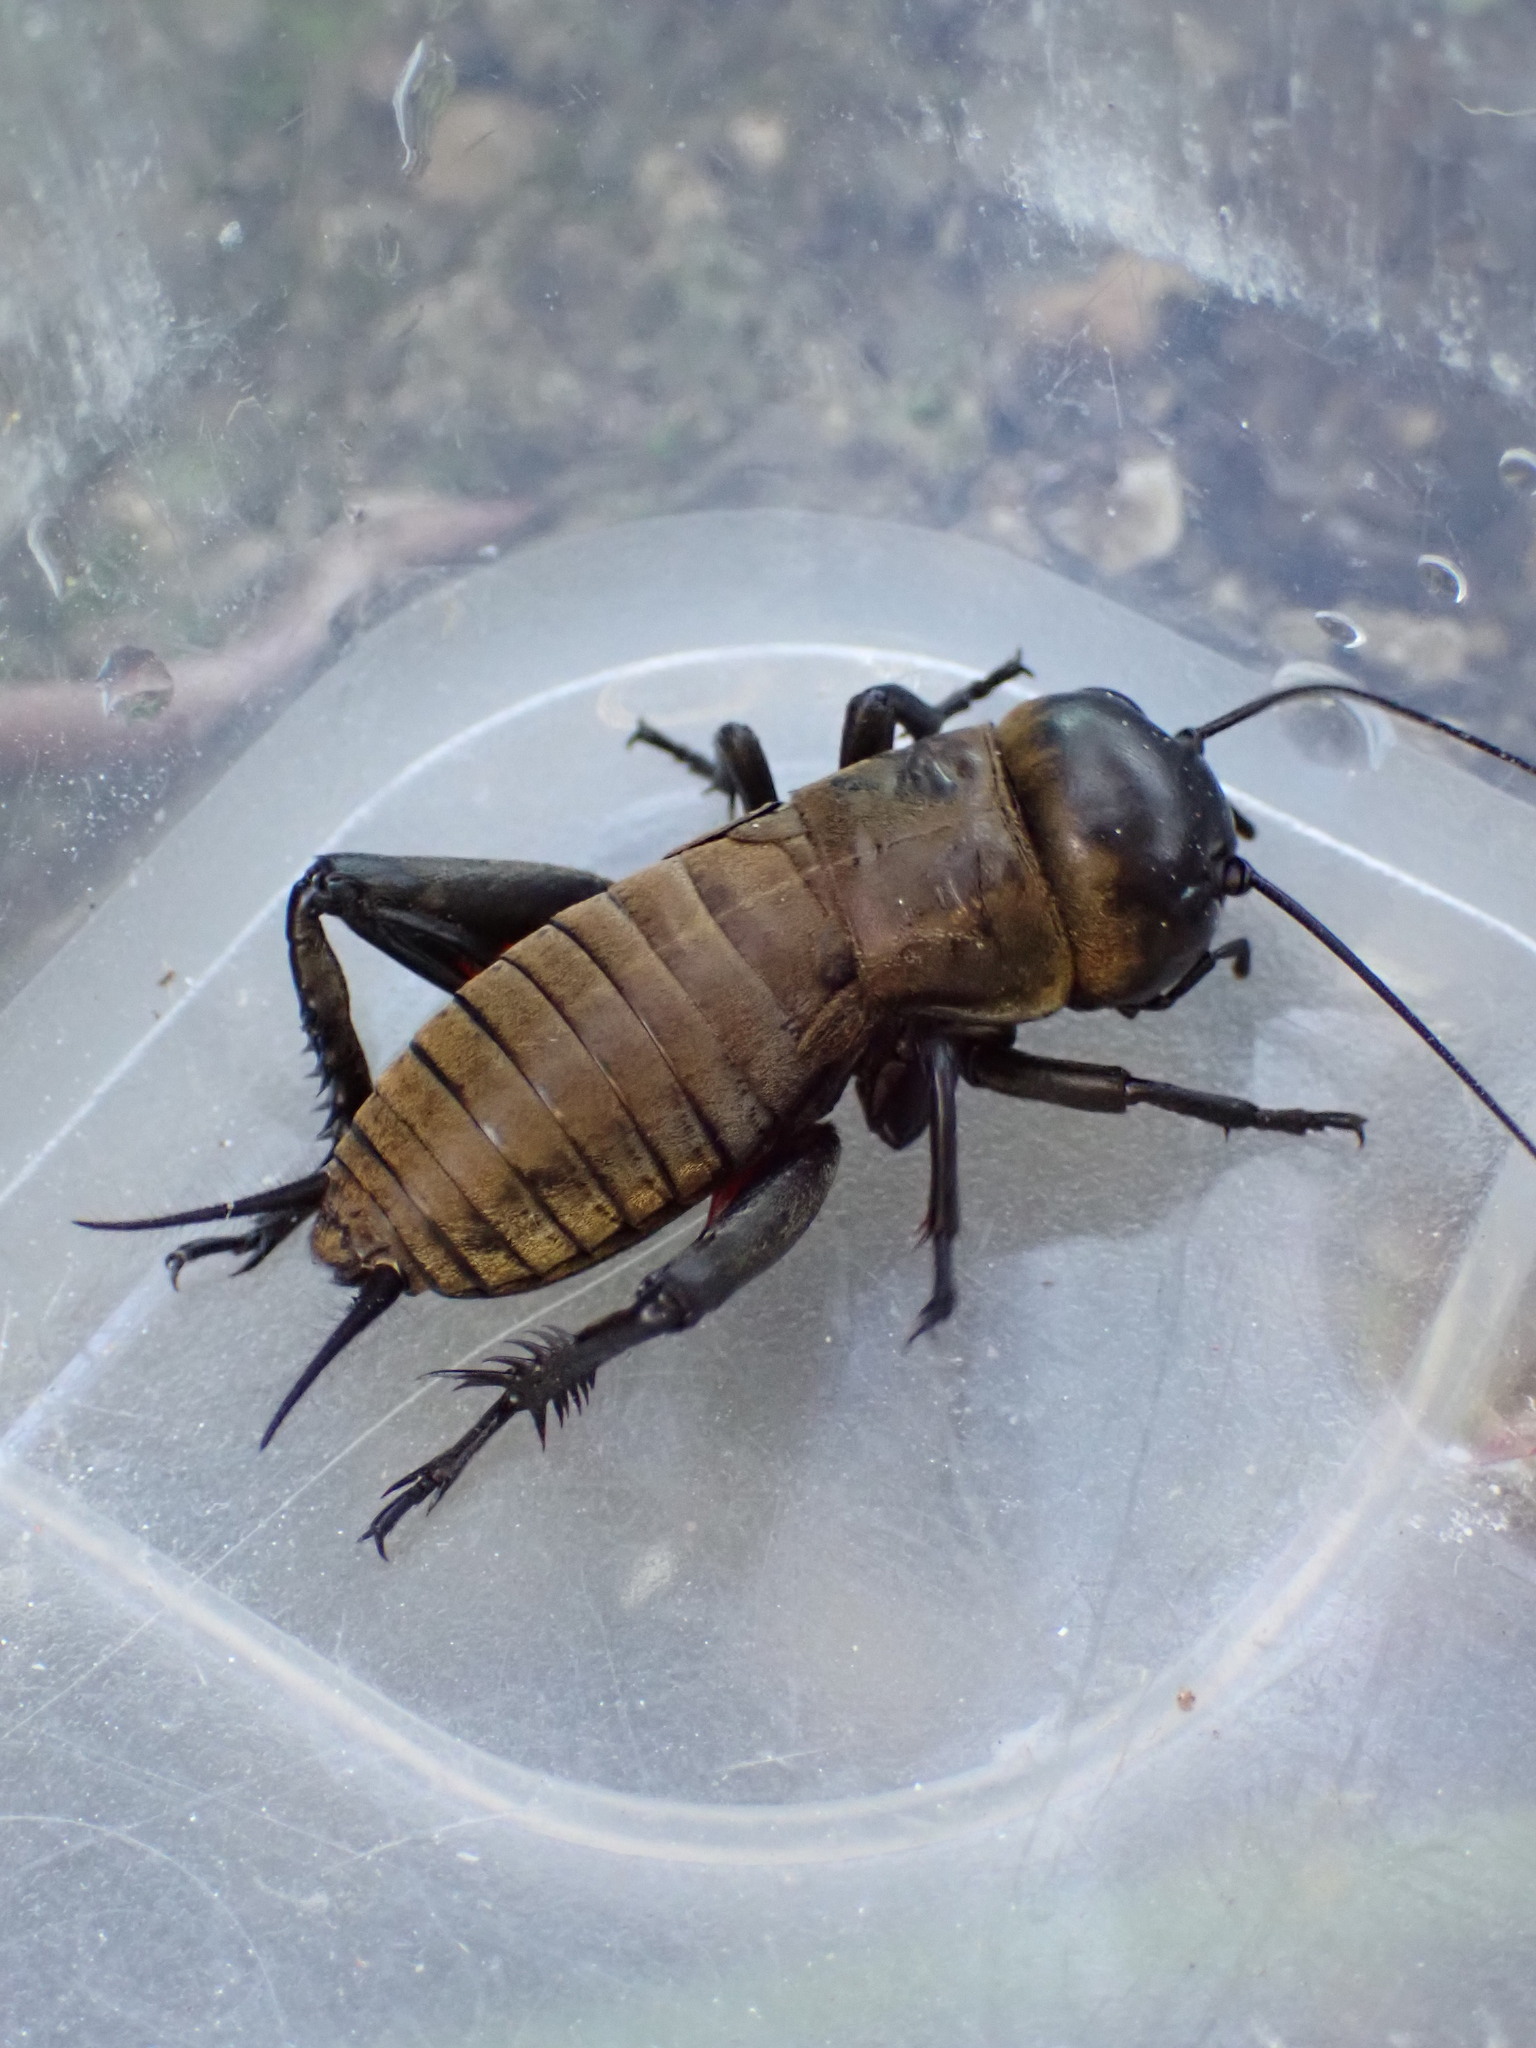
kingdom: Animalia
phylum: Arthropoda
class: Insecta
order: Orthoptera
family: Gryllidae
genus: Gryllus
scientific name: Gryllus campestris
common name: Field cricket
